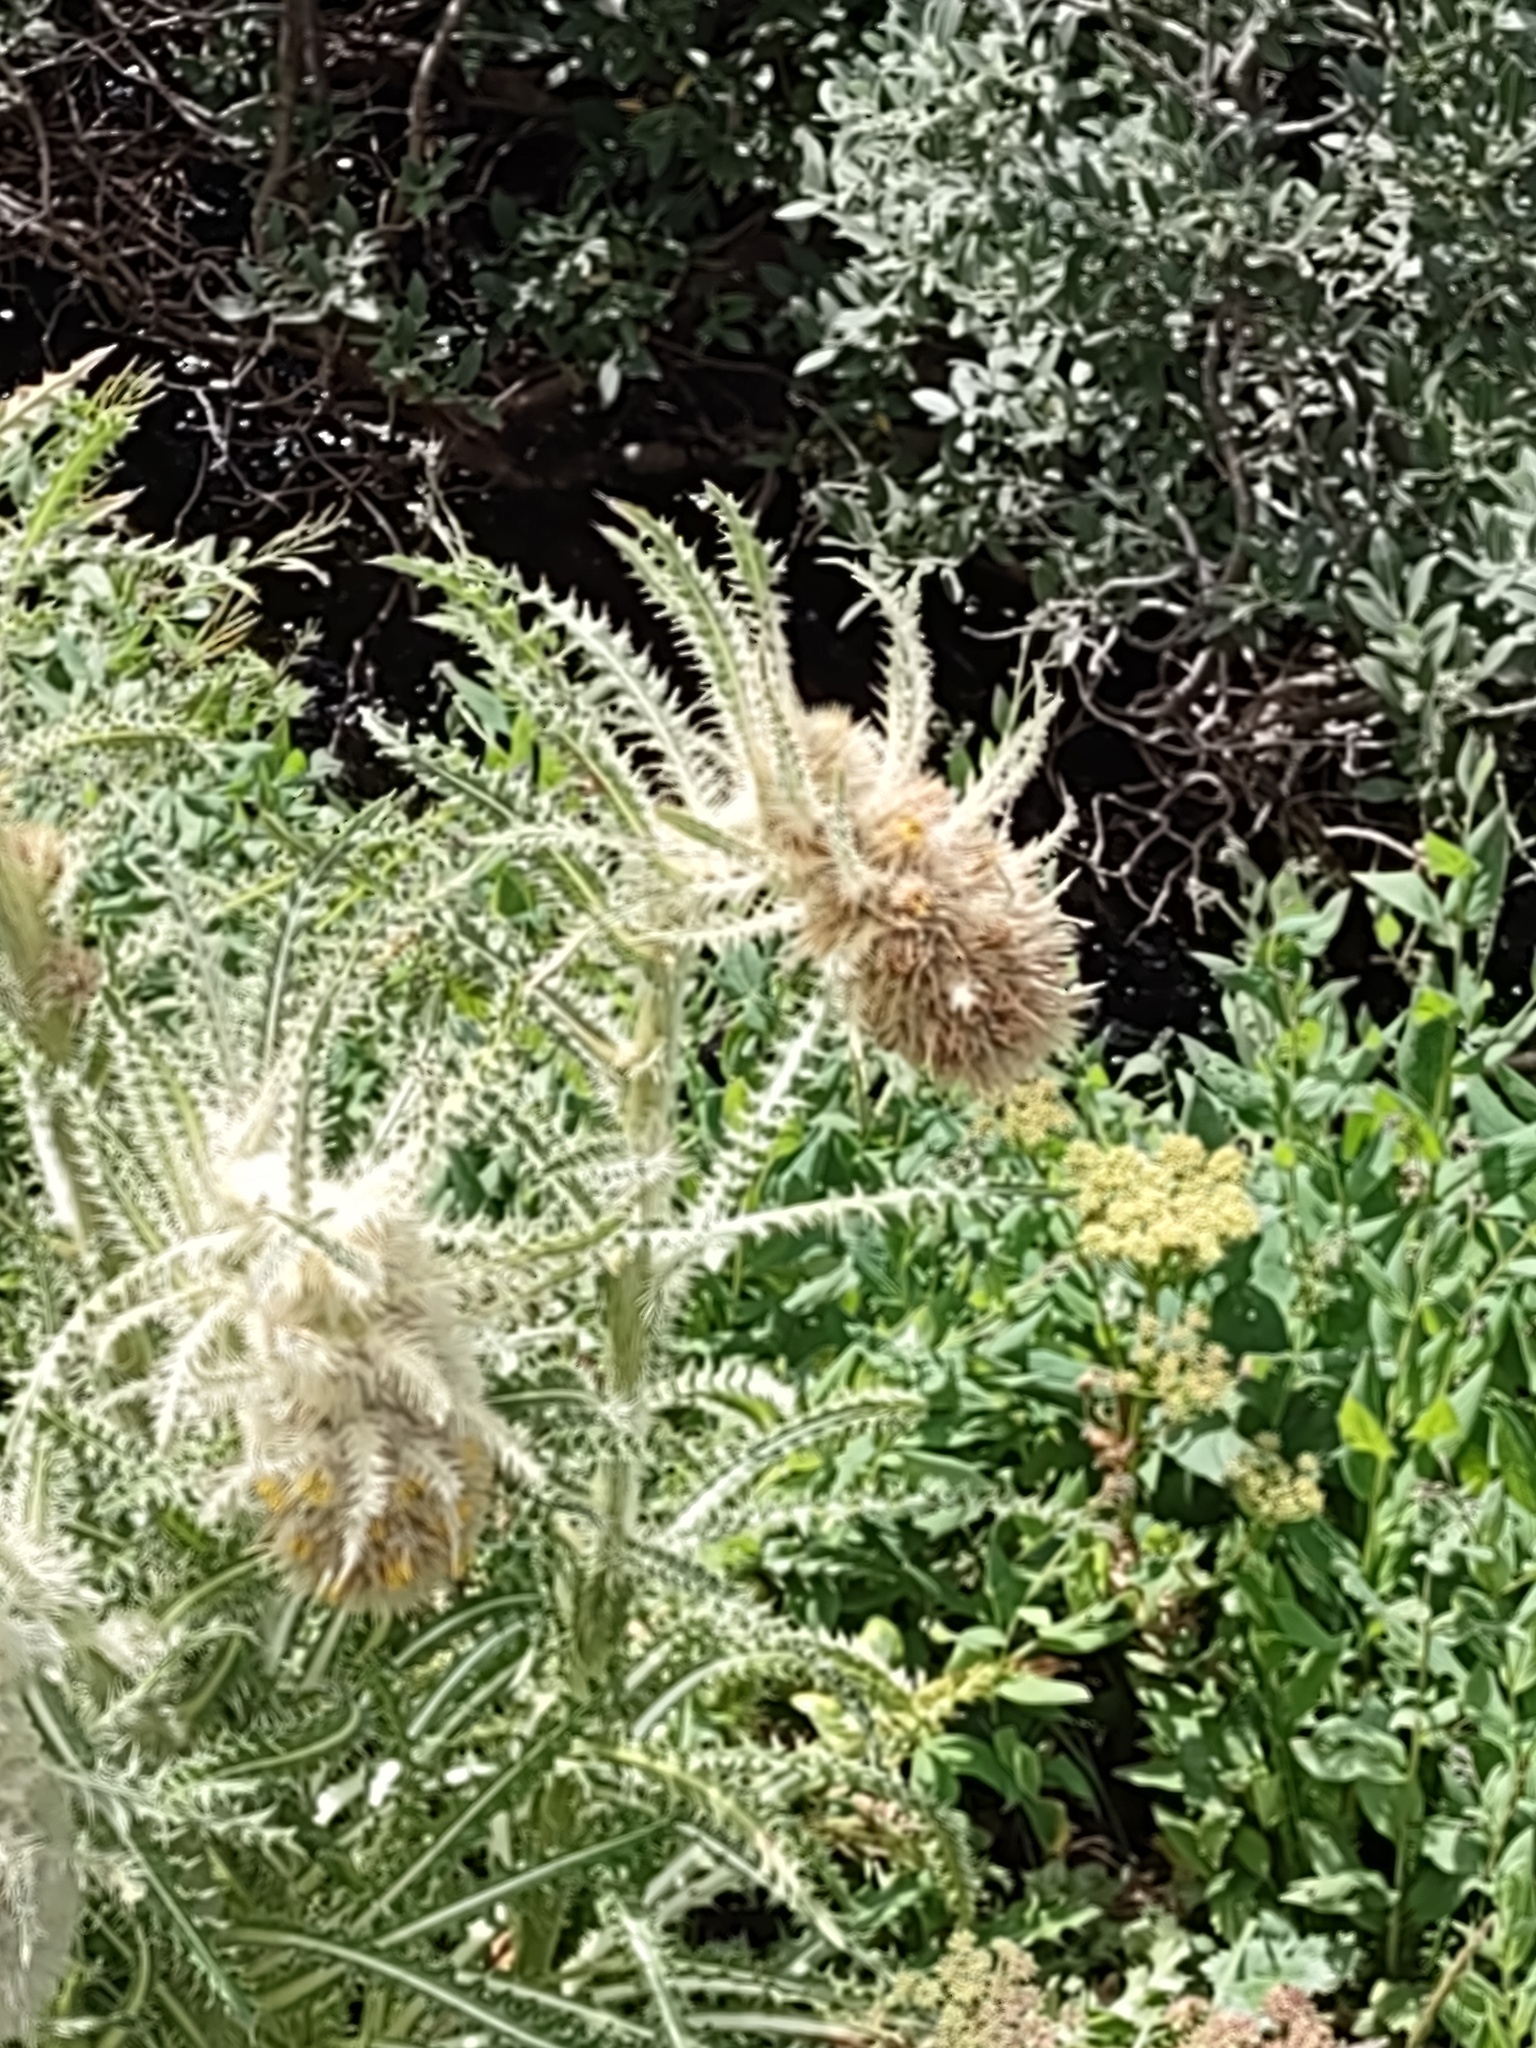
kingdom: Plantae
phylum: Tracheophyta
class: Magnoliopsida
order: Asterales
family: Asteraceae
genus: Cirsium
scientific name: Cirsium funkiae
